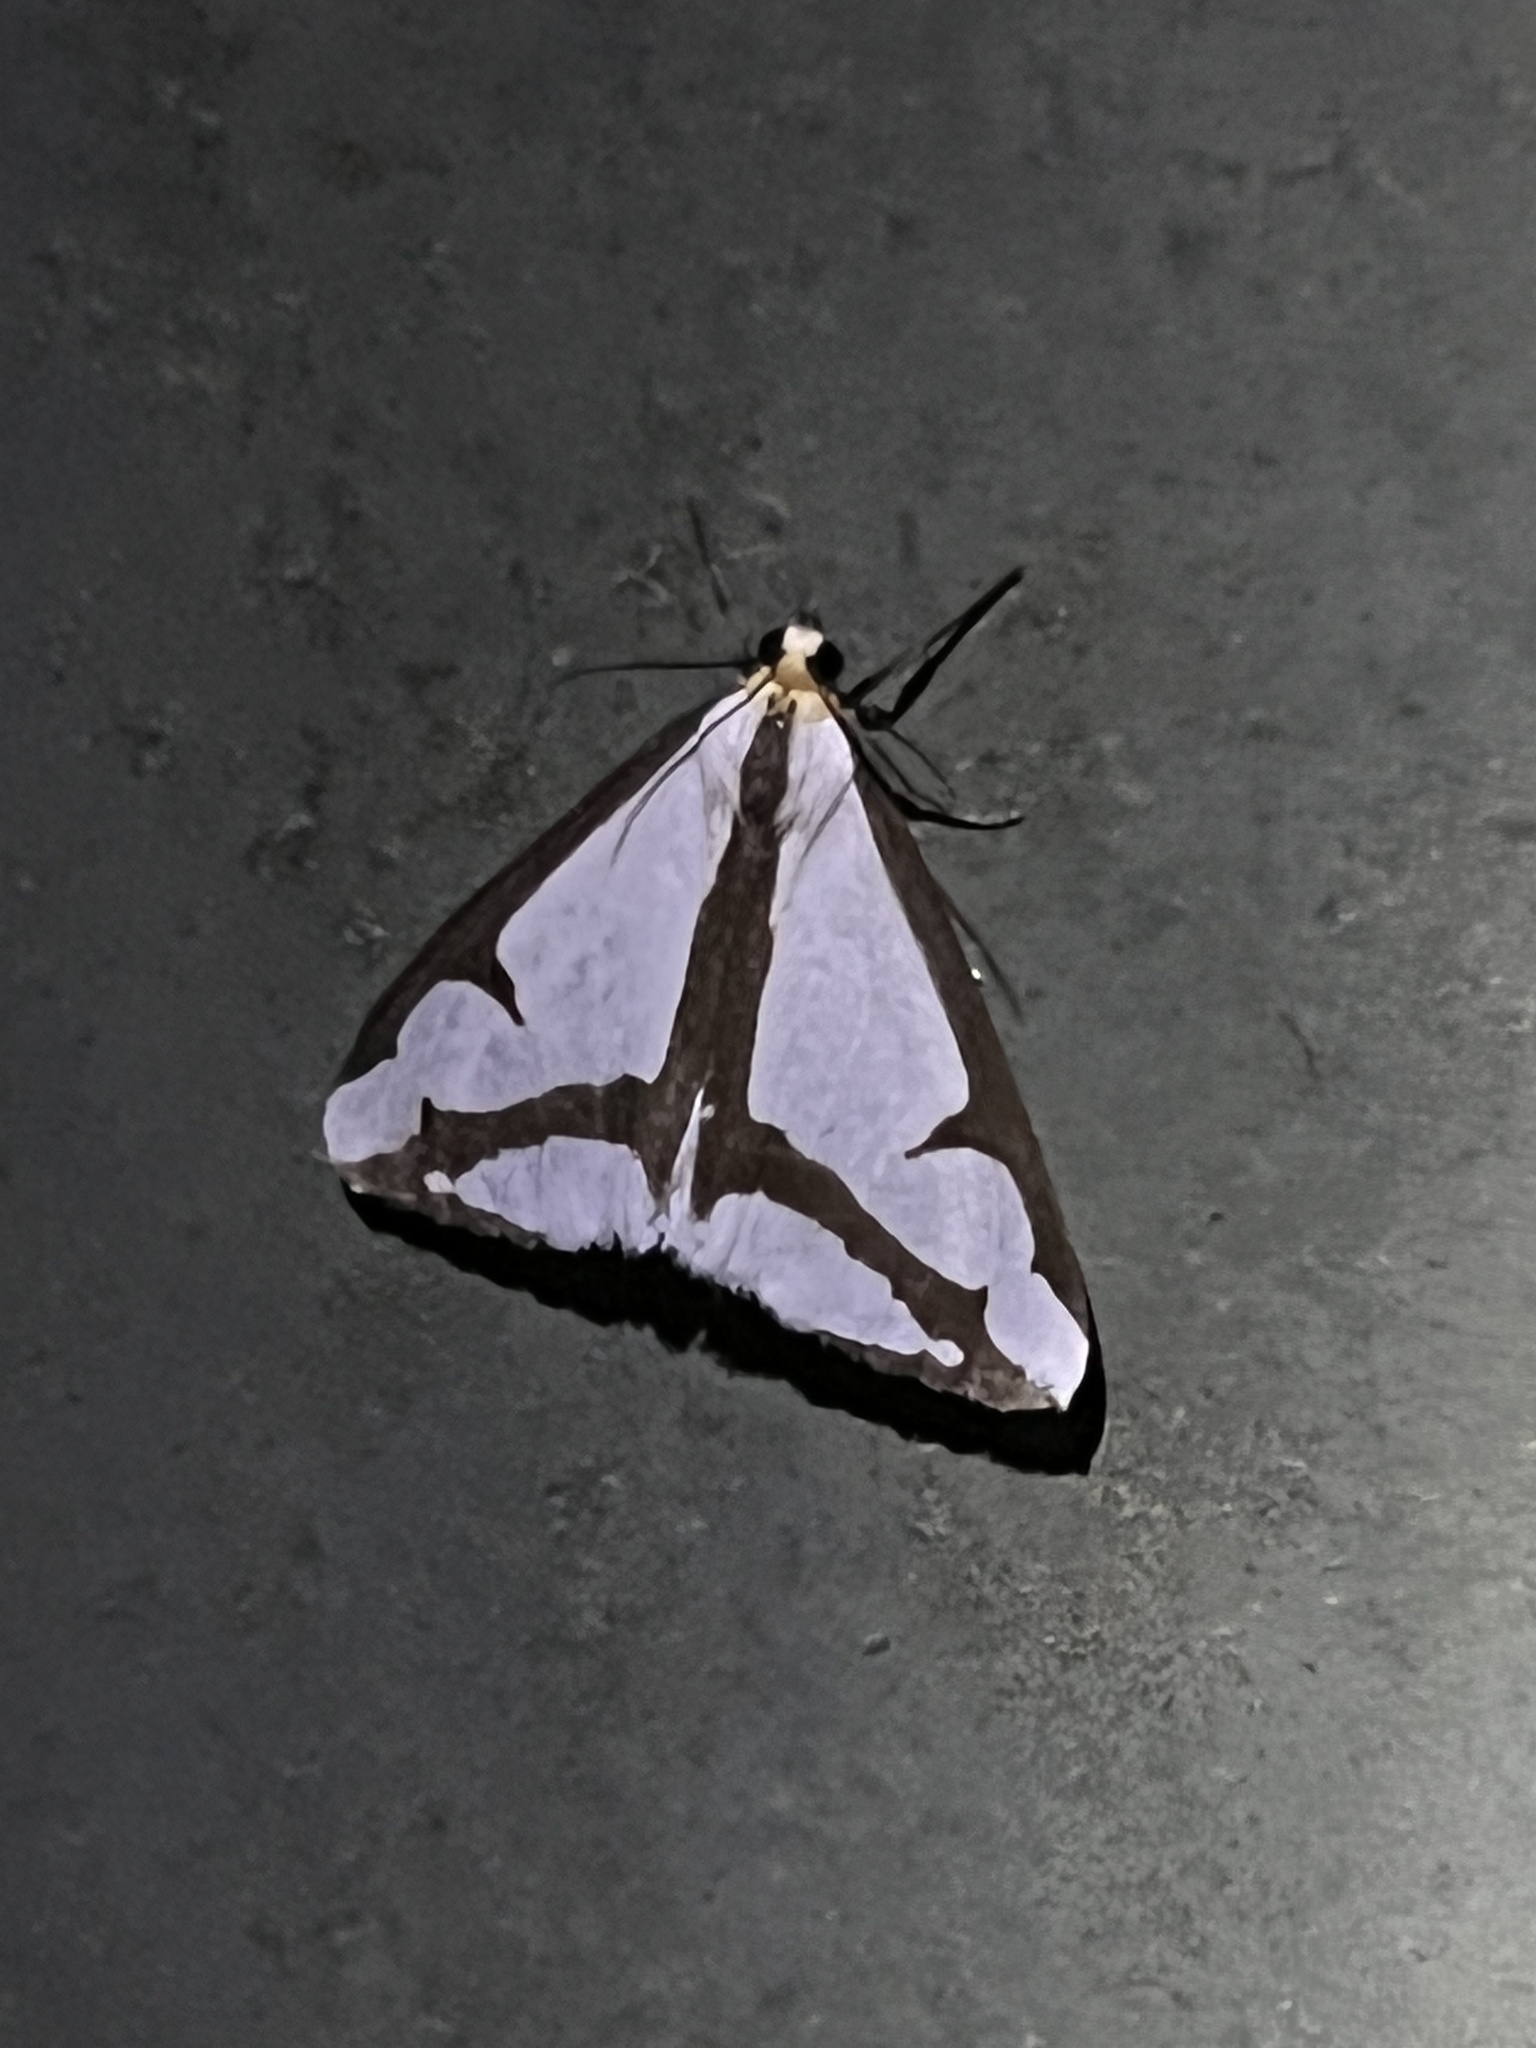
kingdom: Animalia
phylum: Arthropoda
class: Insecta
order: Lepidoptera
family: Erebidae
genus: Haploa
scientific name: Haploa lecontei
